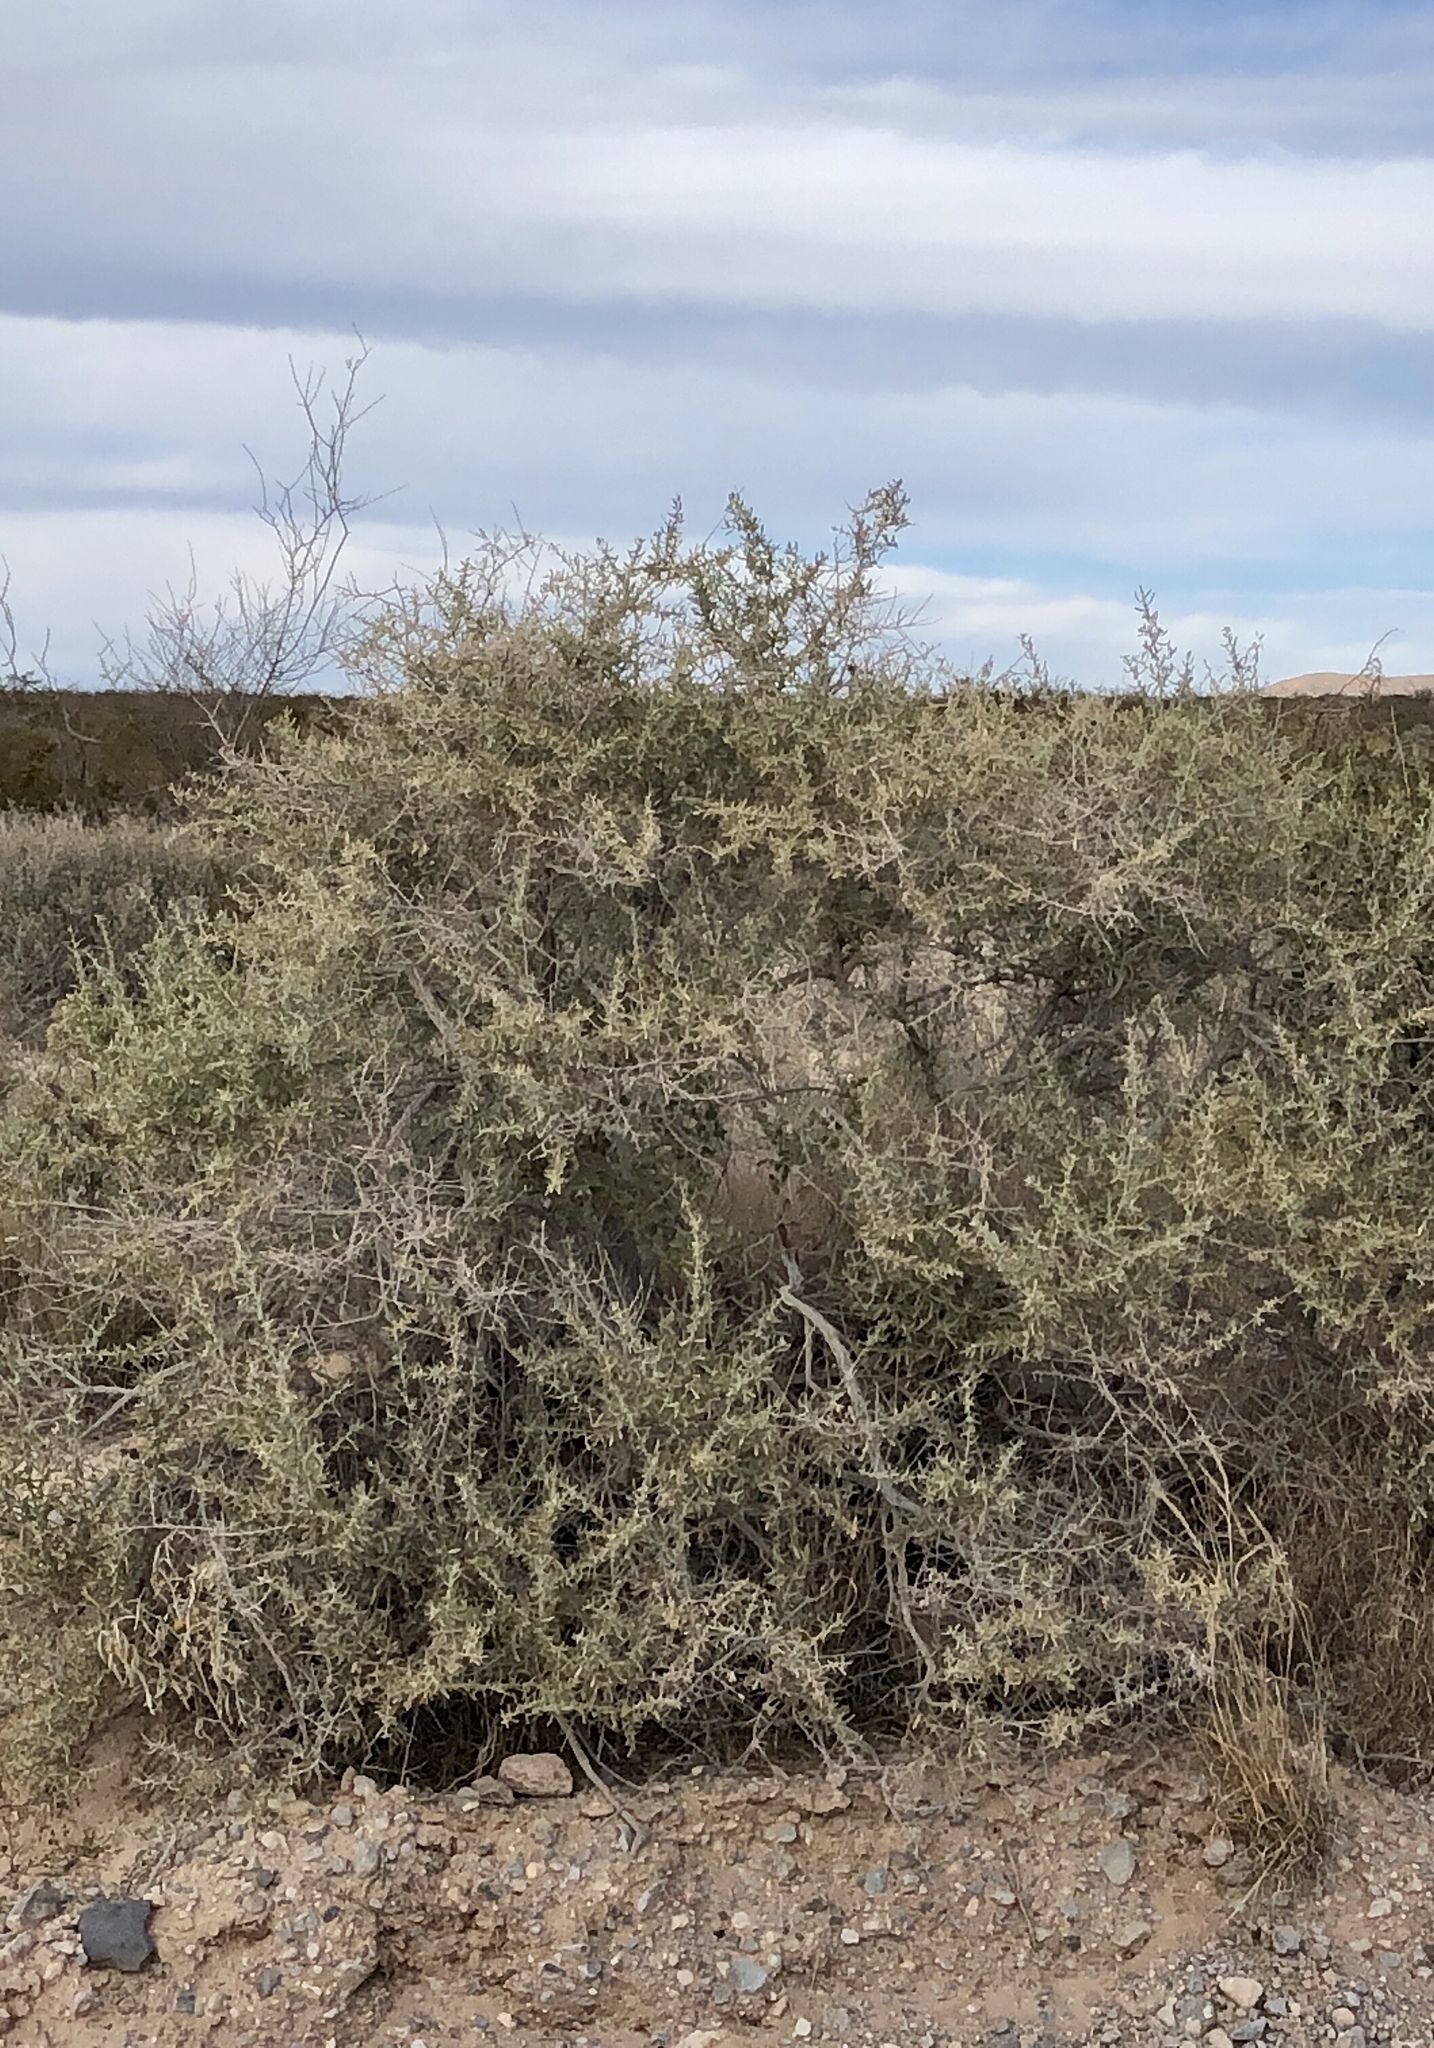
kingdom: Plantae
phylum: Tracheophyta
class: Magnoliopsida
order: Caryophyllales
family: Amaranthaceae
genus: Atriplex
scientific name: Atriplex canescens
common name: Four-wing saltbush
